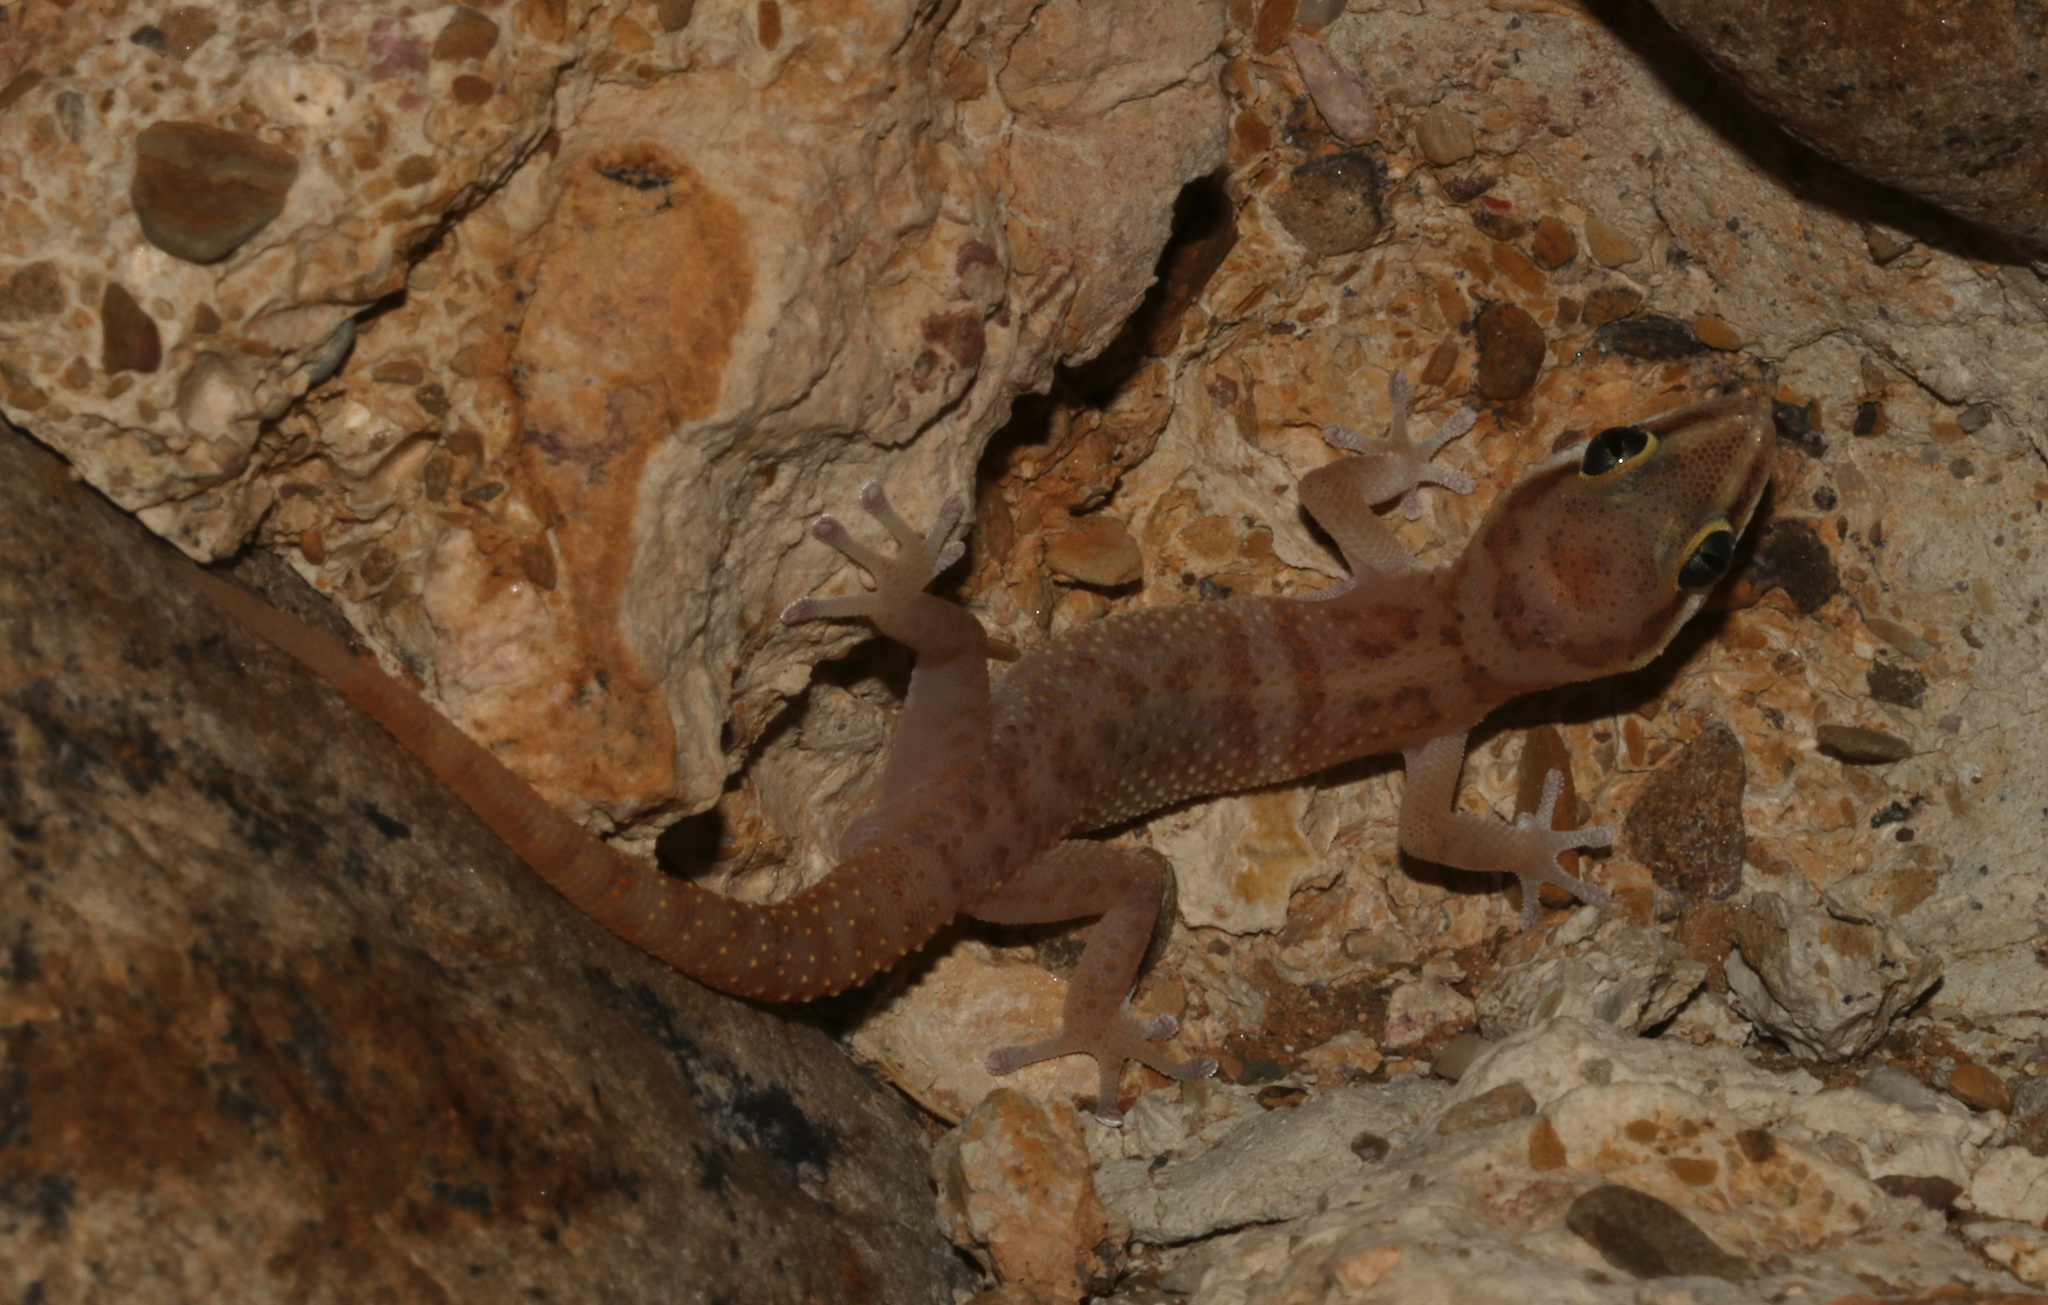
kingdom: Animalia
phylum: Chordata
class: Squamata
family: Gekkonidae
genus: Pachydactylus
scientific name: Pachydactylus etultra
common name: Sossus gecko
